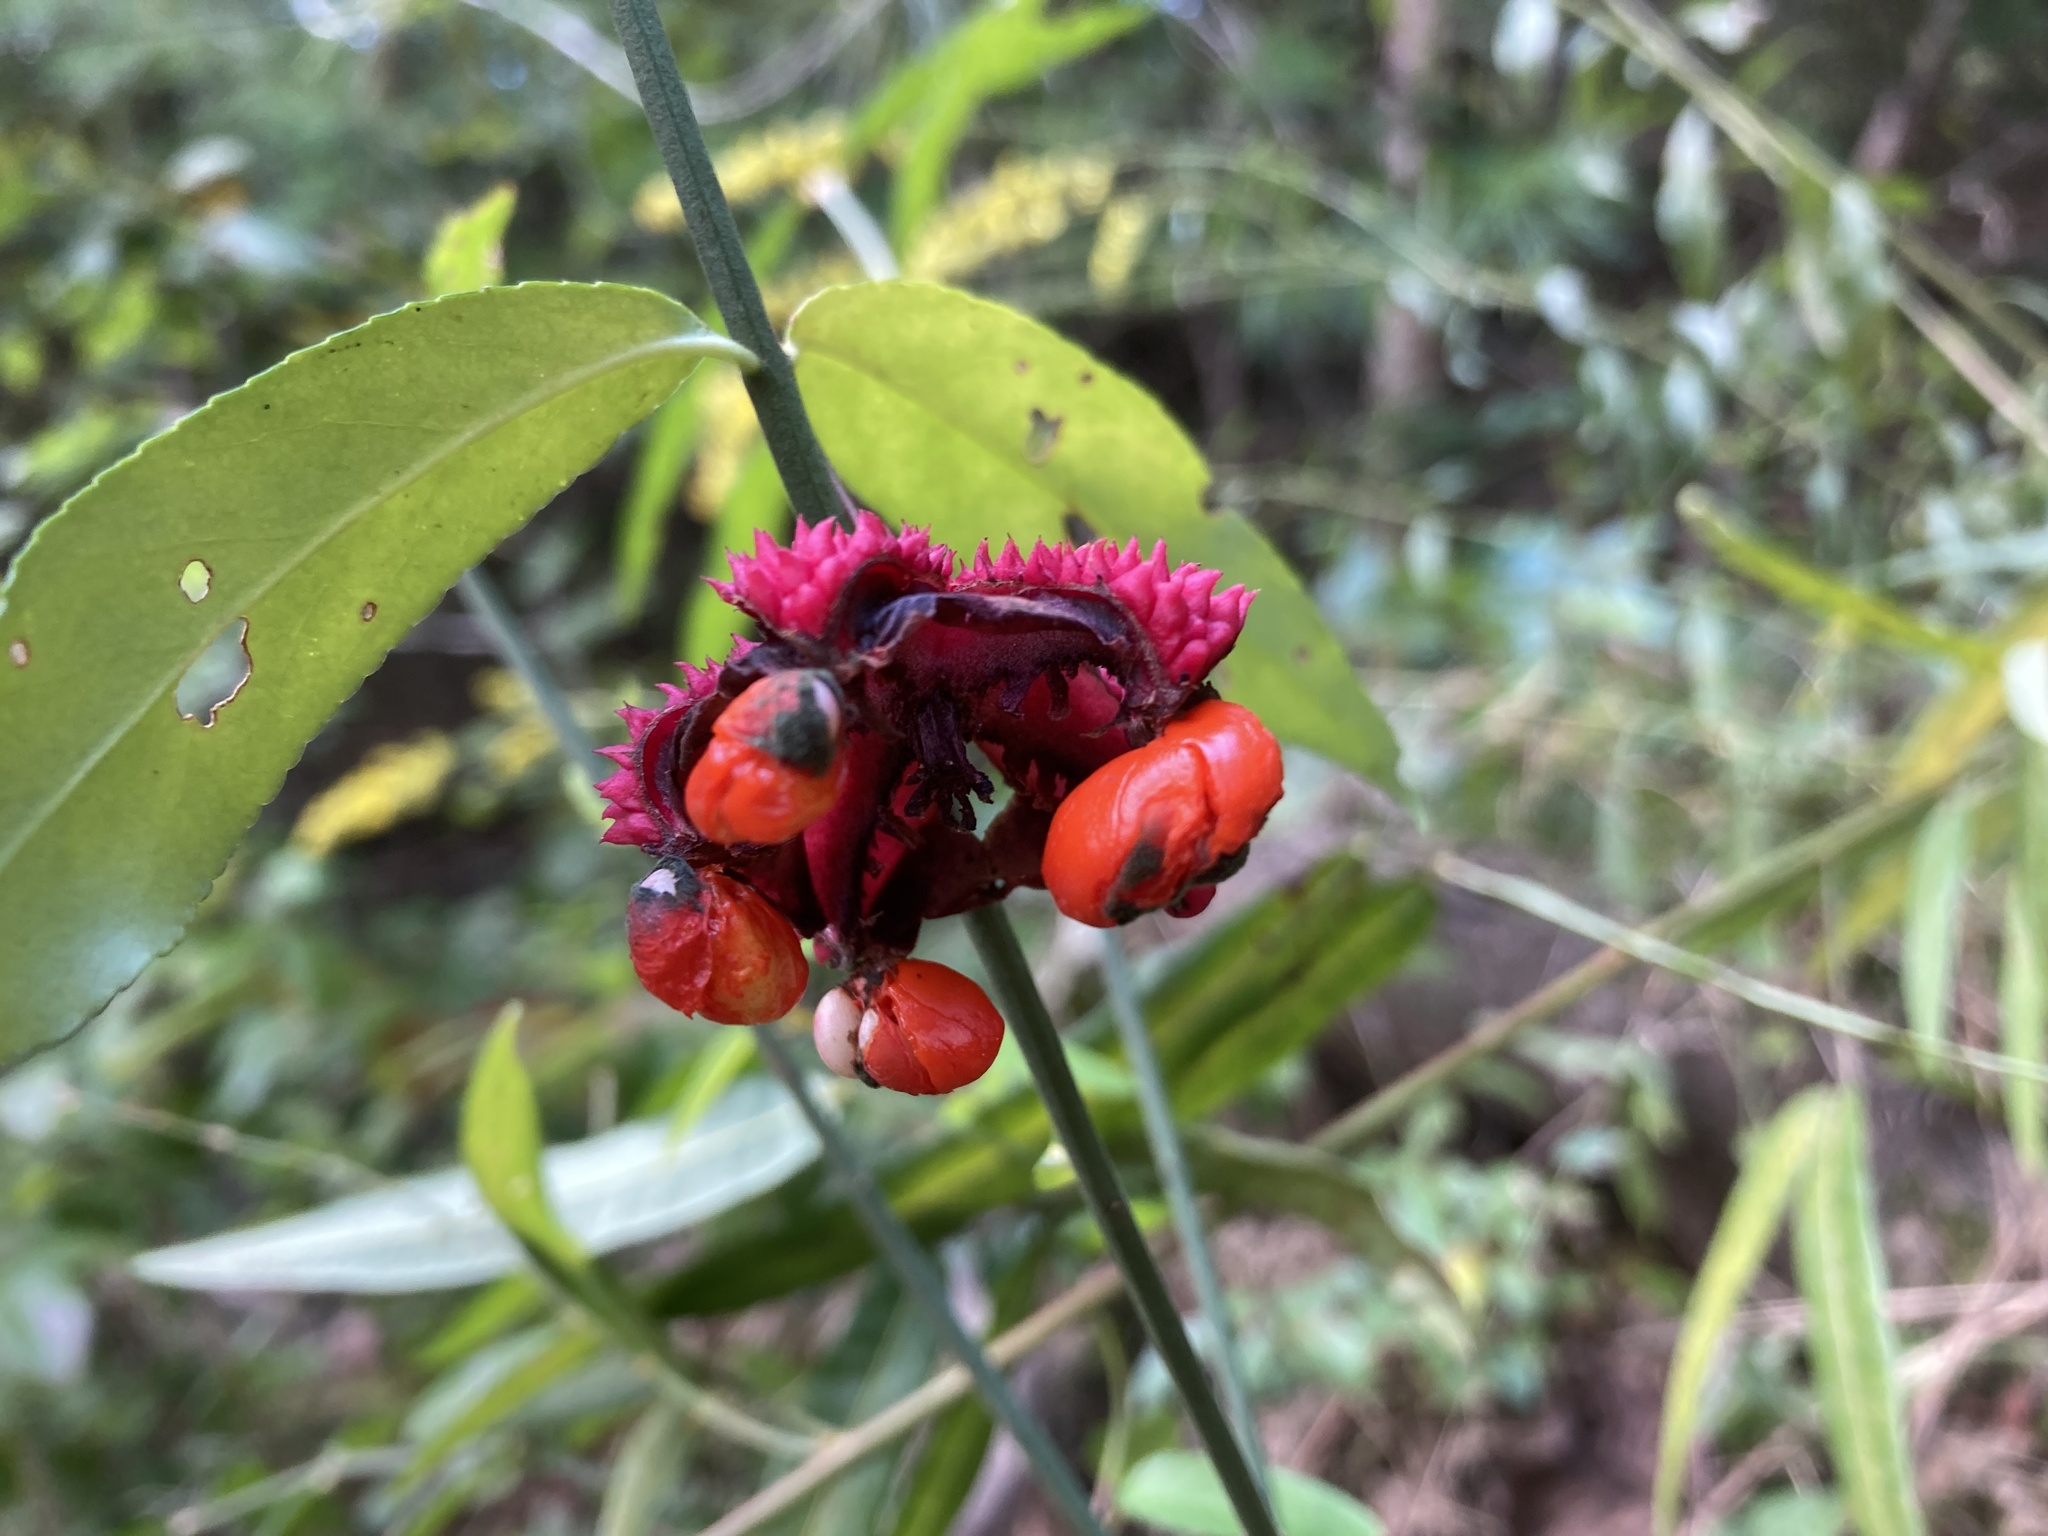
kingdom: Plantae
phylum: Tracheophyta
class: Magnoliopsida
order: Celastrales
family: Celastraceae
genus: Euonymus
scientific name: Euonymus americanus
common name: Bursting-heart
